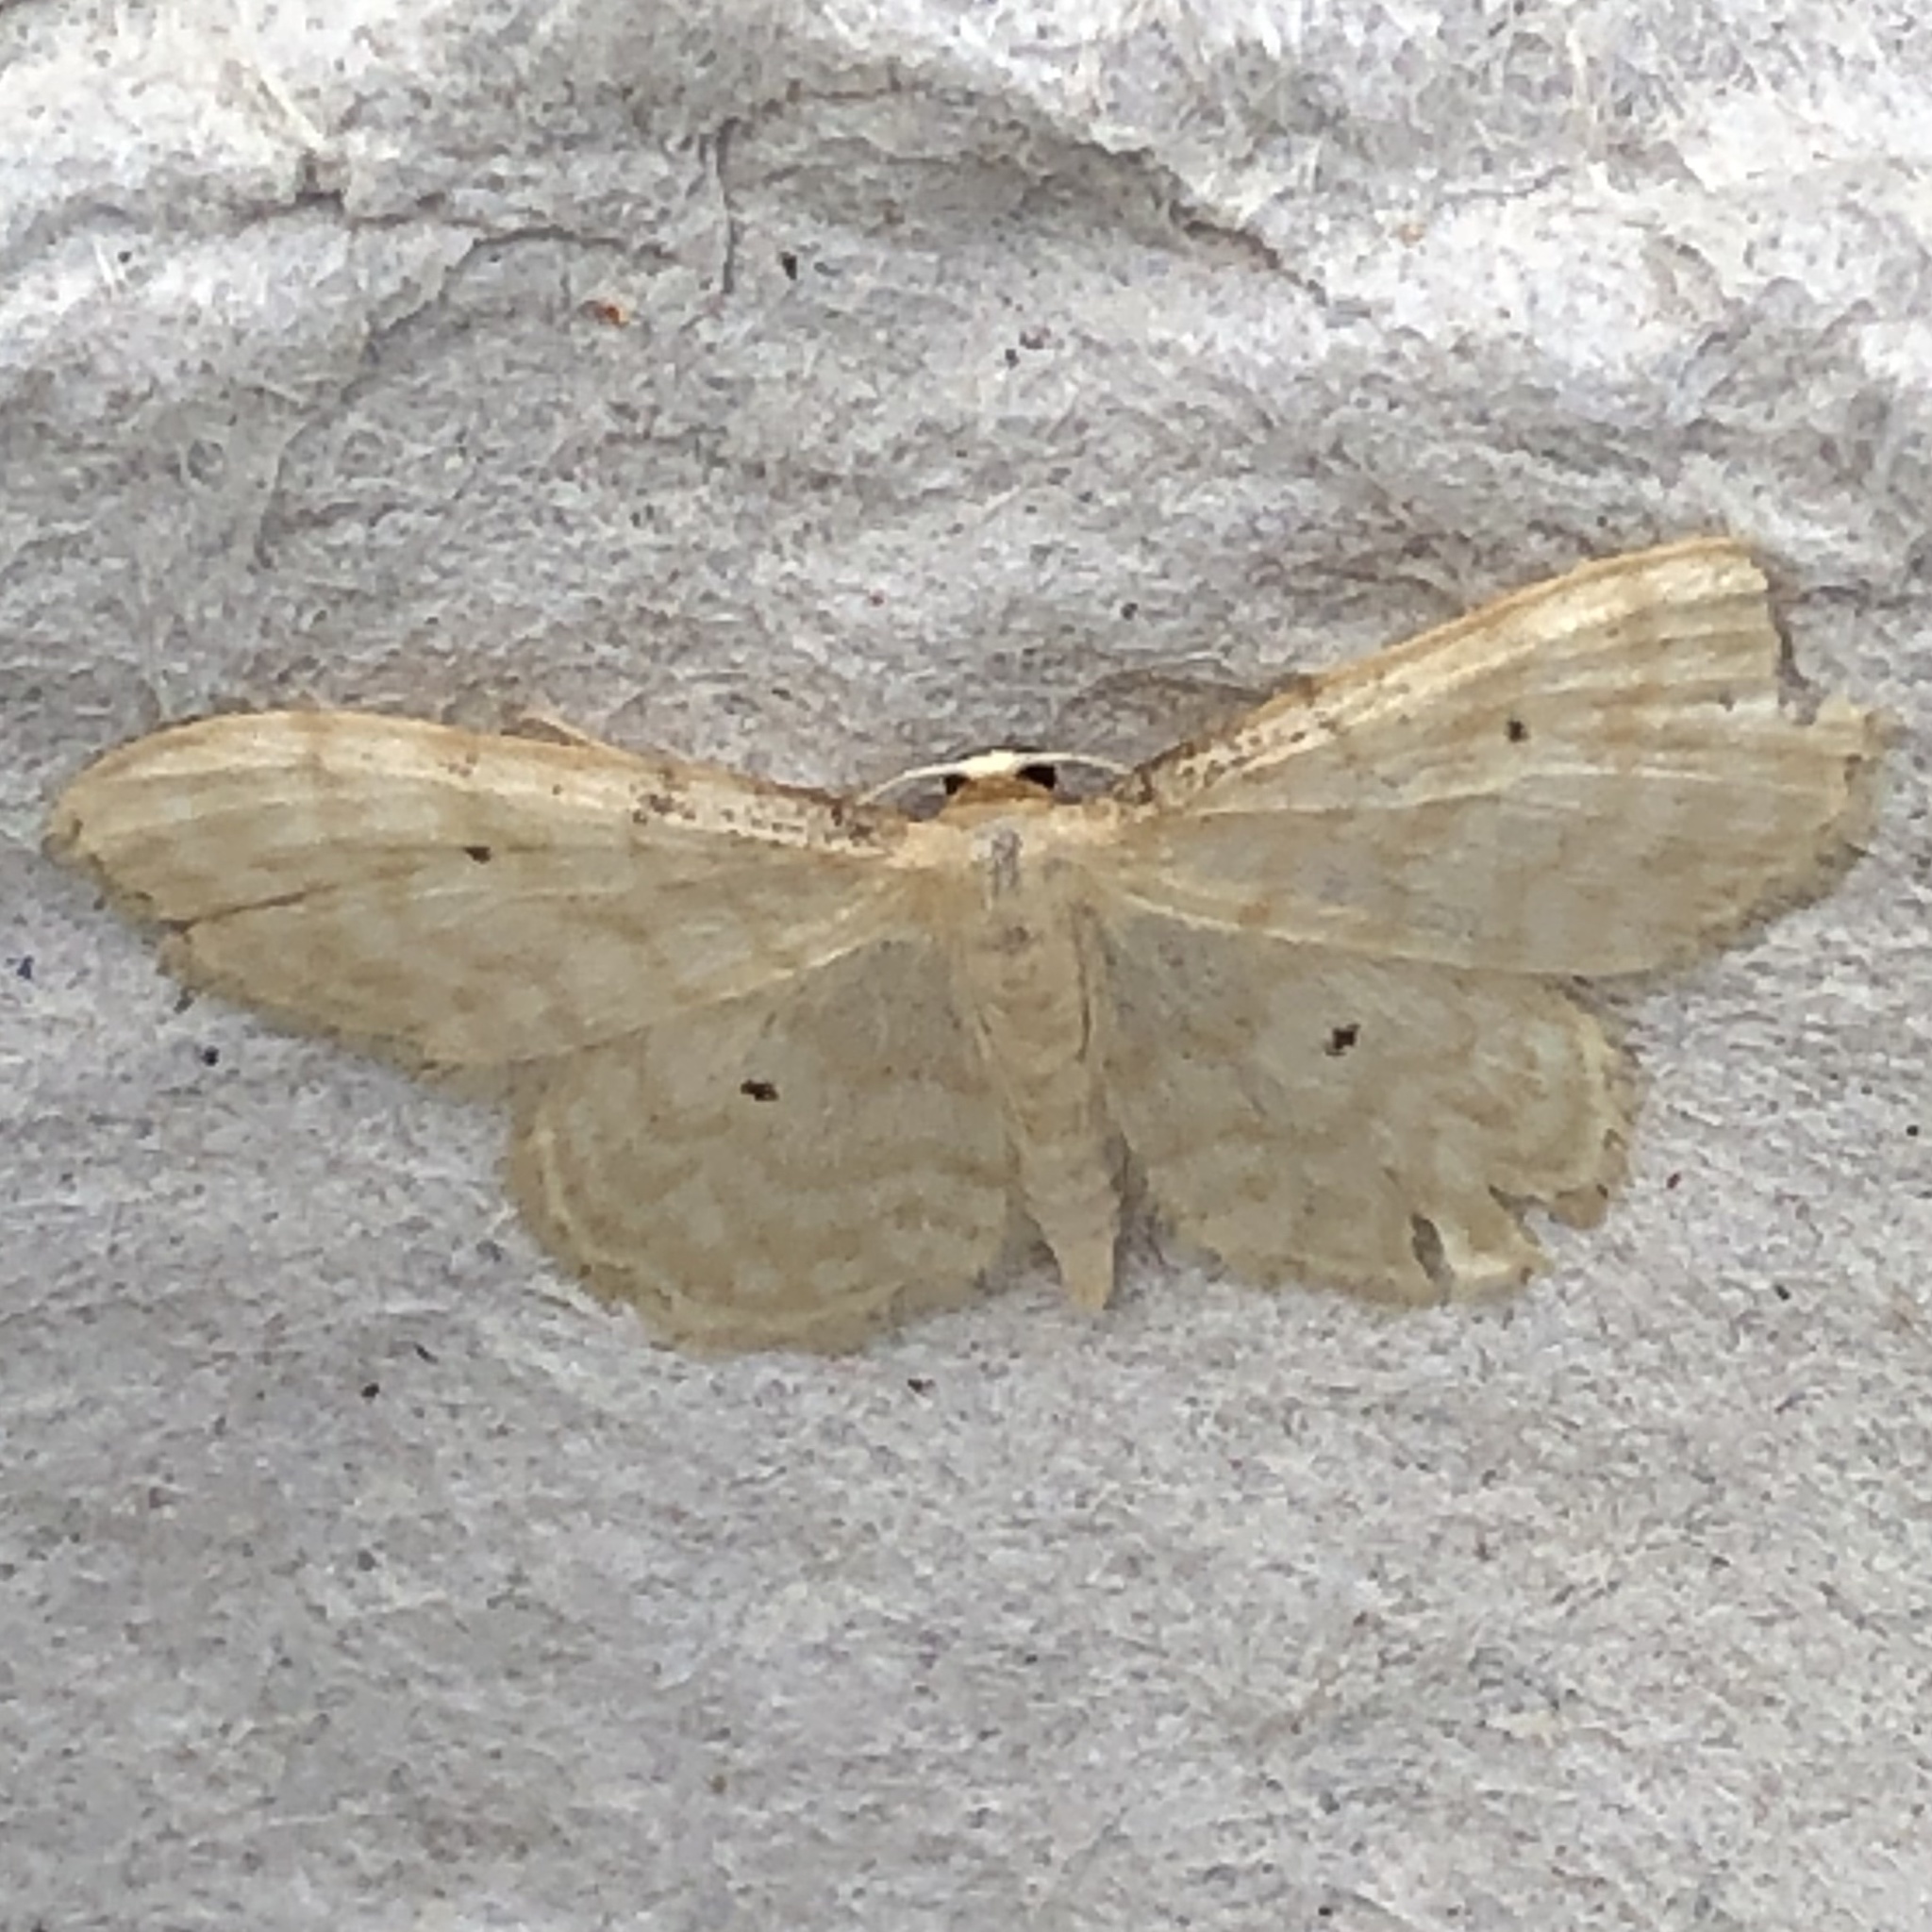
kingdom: Animalia
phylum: Arthropoda
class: Insecta
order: Lepidoptera
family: Geometridae
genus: Idaea
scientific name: Idaea fuscovenosa
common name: Dwarf cream wave
